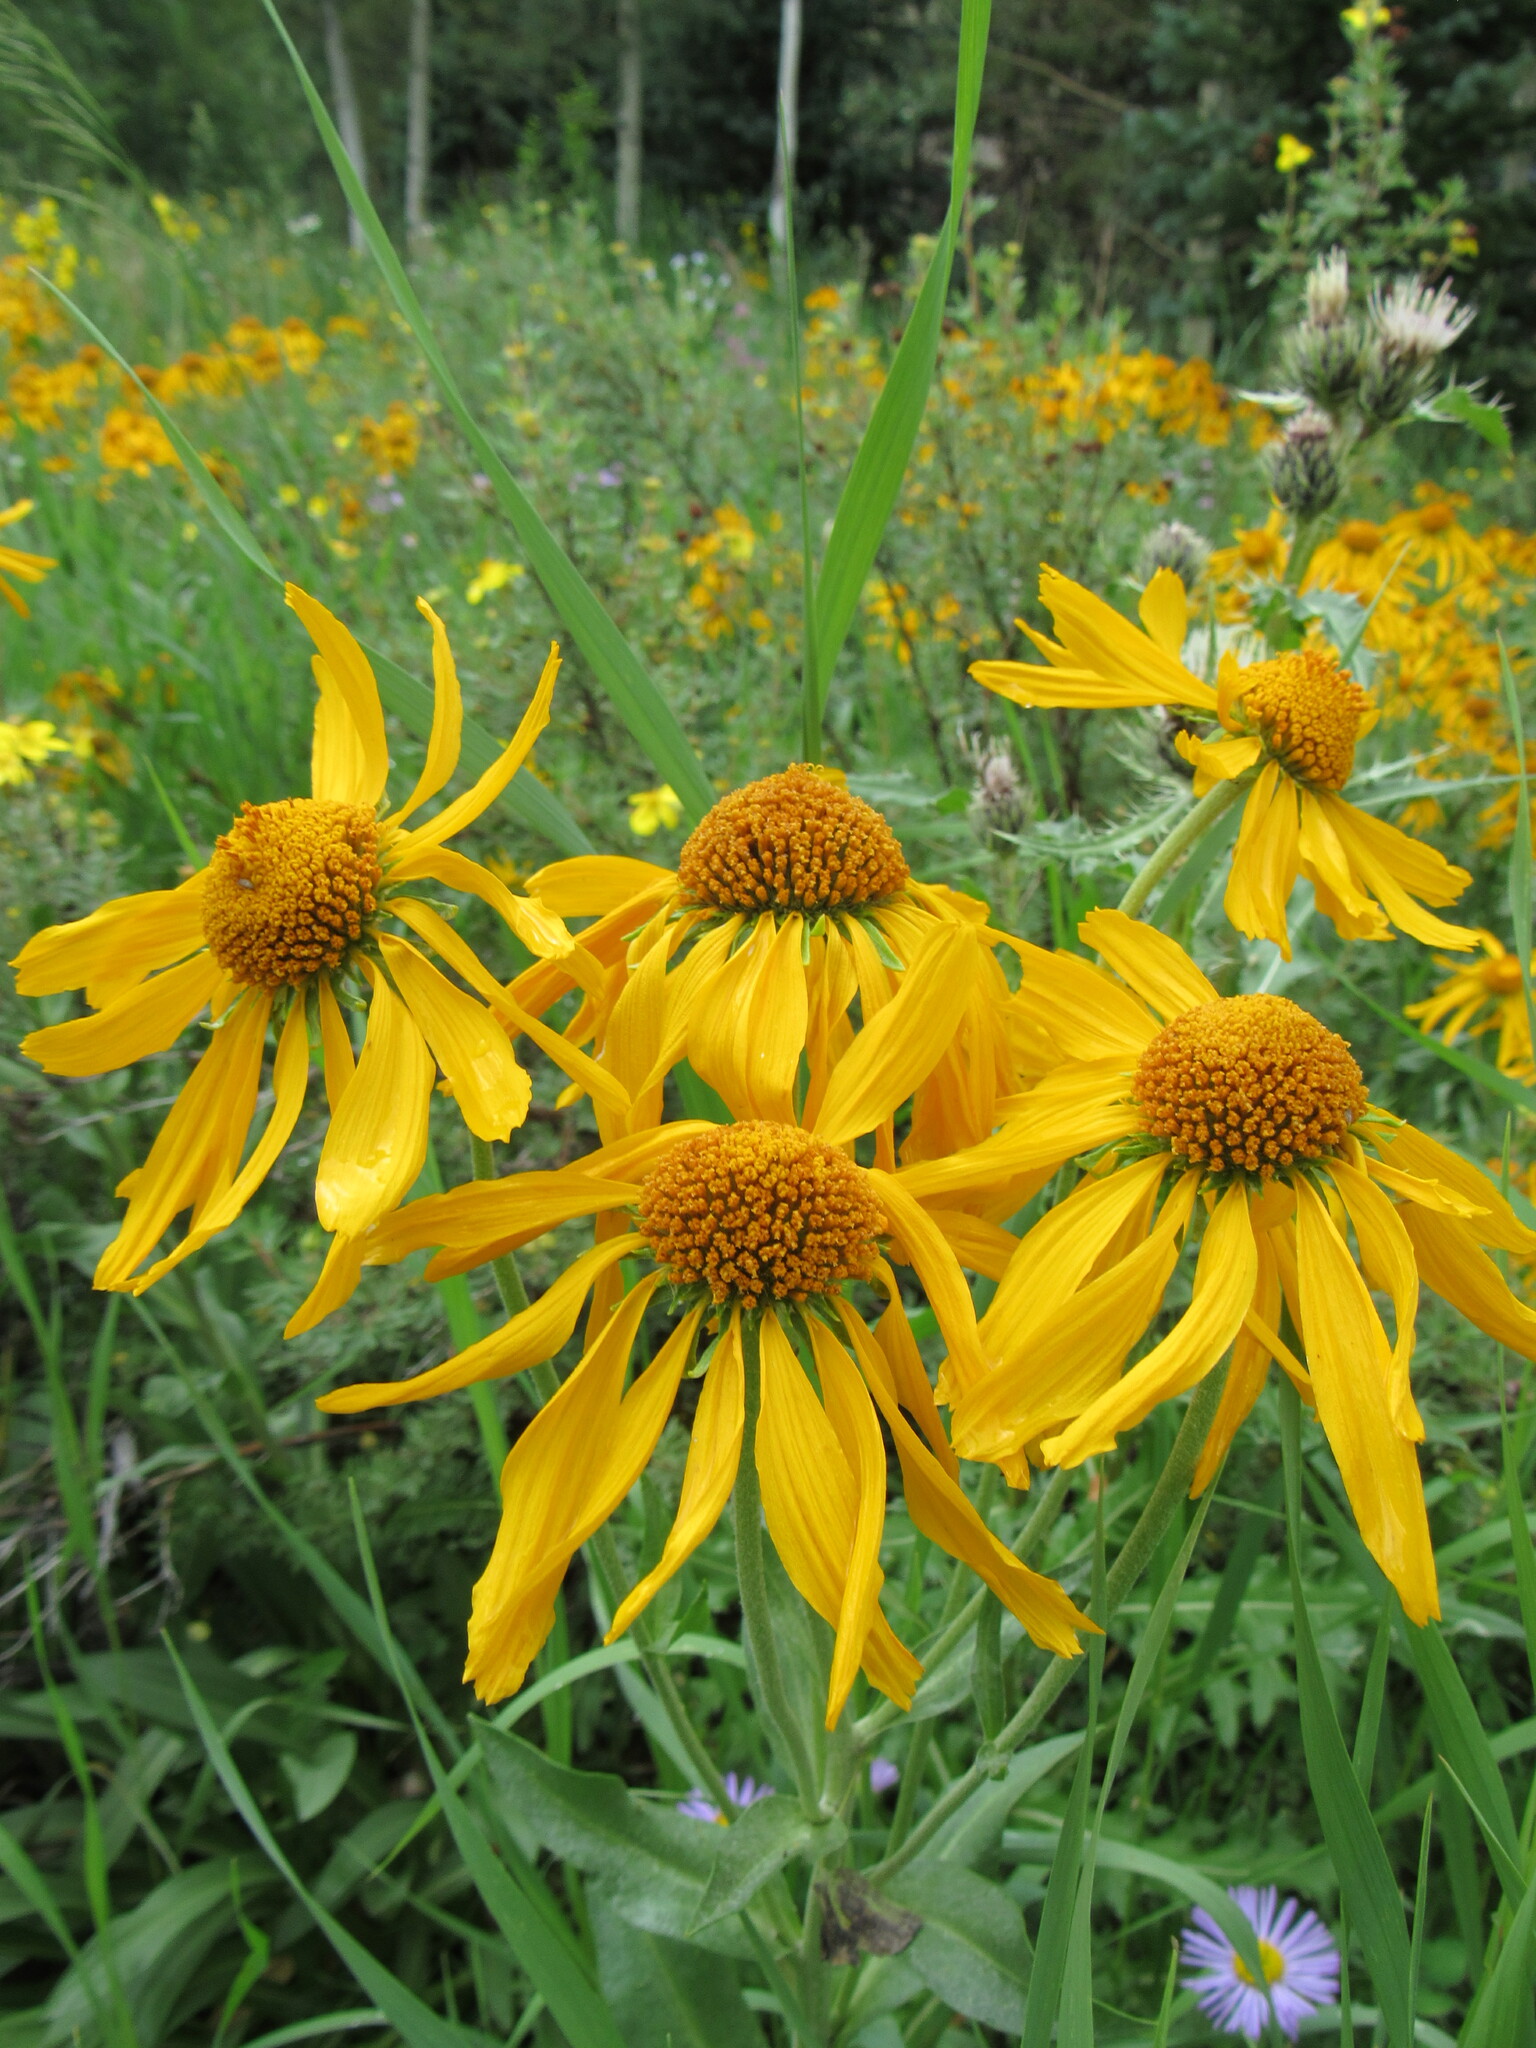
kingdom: Plantae
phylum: Tracheophyta
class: Magnoliopsida
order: Asterales
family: Asteraceae
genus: Hymenoxys
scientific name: Hymenoxys hoopesii
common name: Orange-sneezeweed
